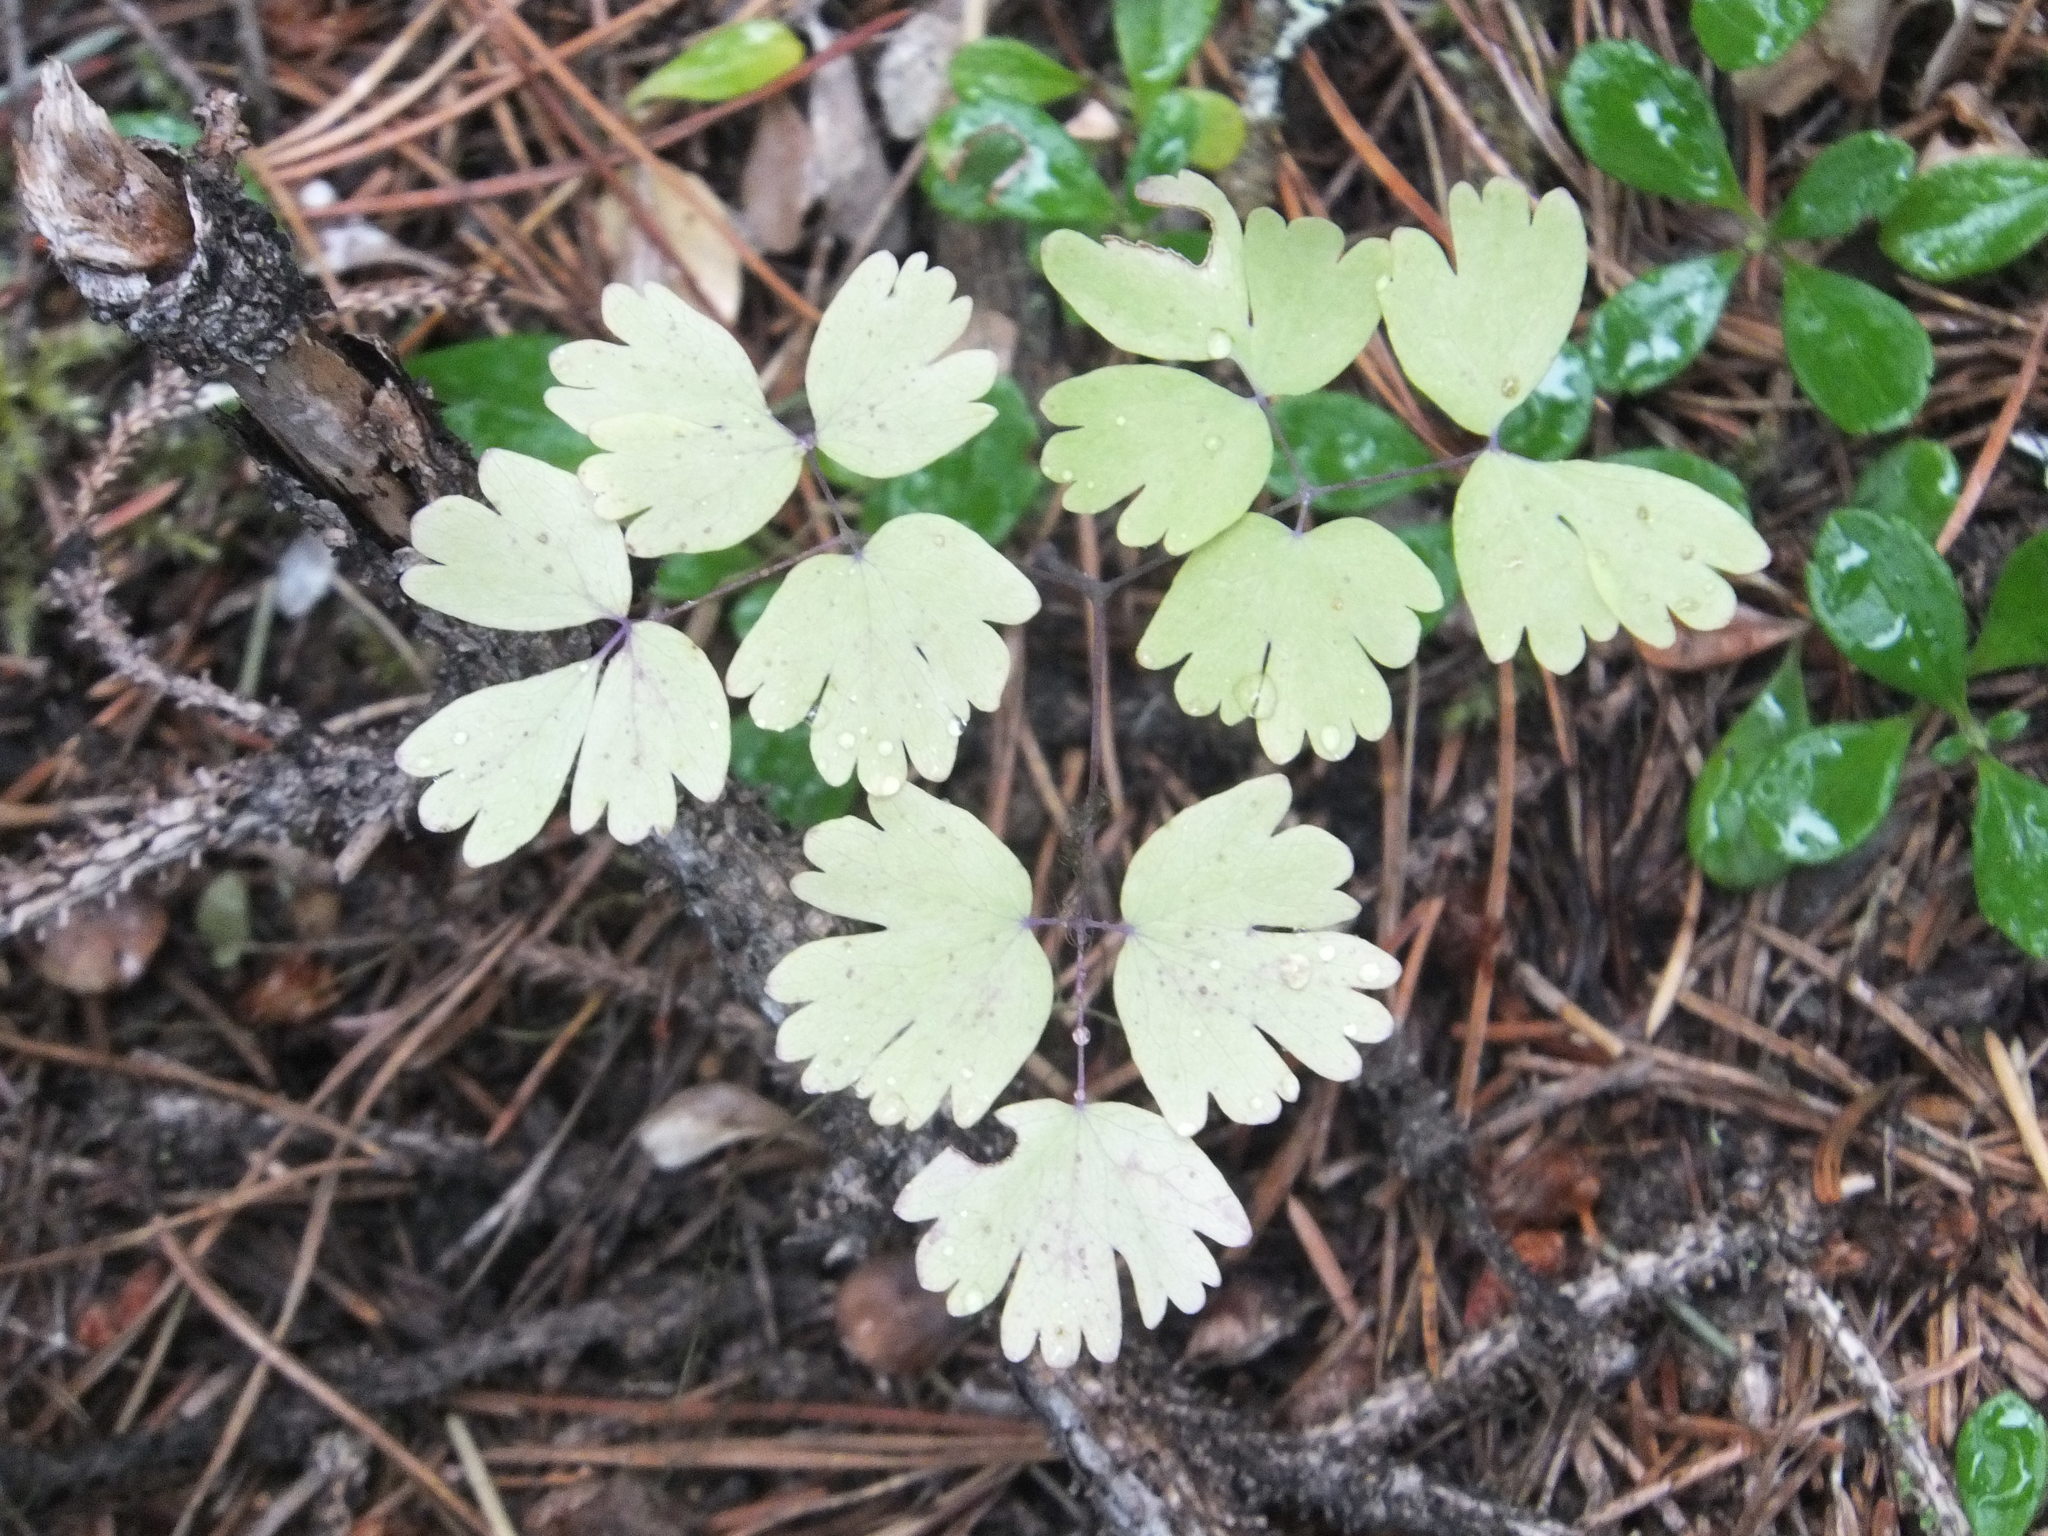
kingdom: Plantae
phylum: Tracheophyta
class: Magnoliopsida
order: Ranunculales
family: Ranunculaceae
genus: Thalictrum
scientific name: Thalictrum occidentale
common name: Western meadow-rue
